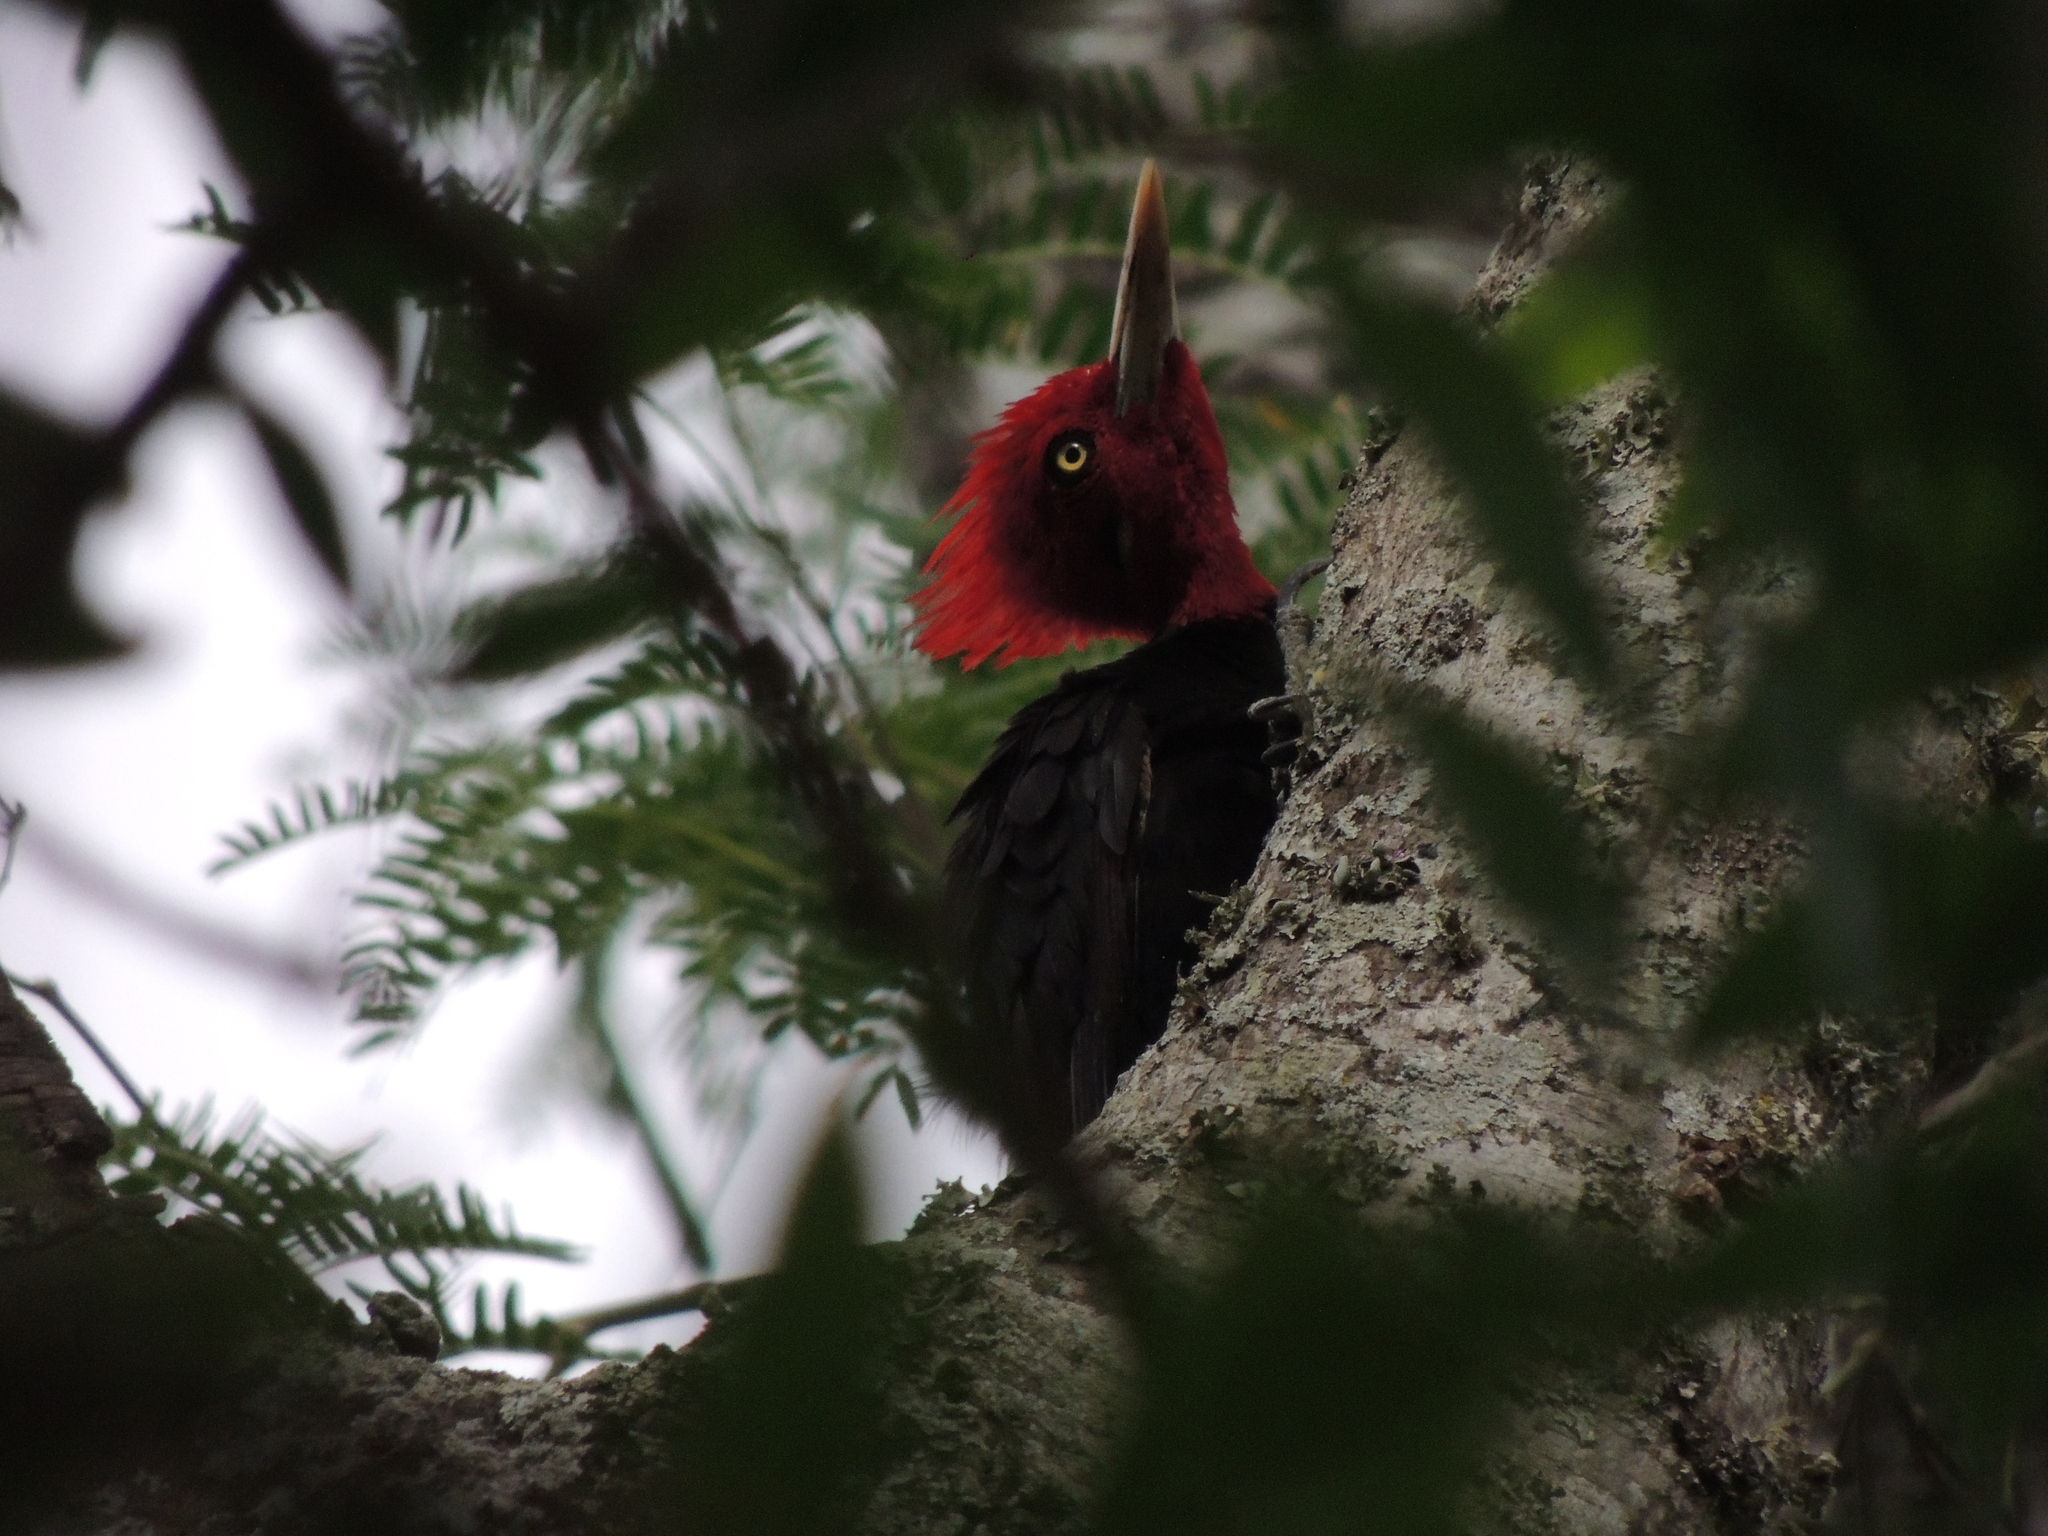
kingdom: Animalia
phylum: Chordata
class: Aves
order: Piciformes
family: Picidae
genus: Campephilus
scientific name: Campephilus leucopogon
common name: Cream-backed woodpecker
